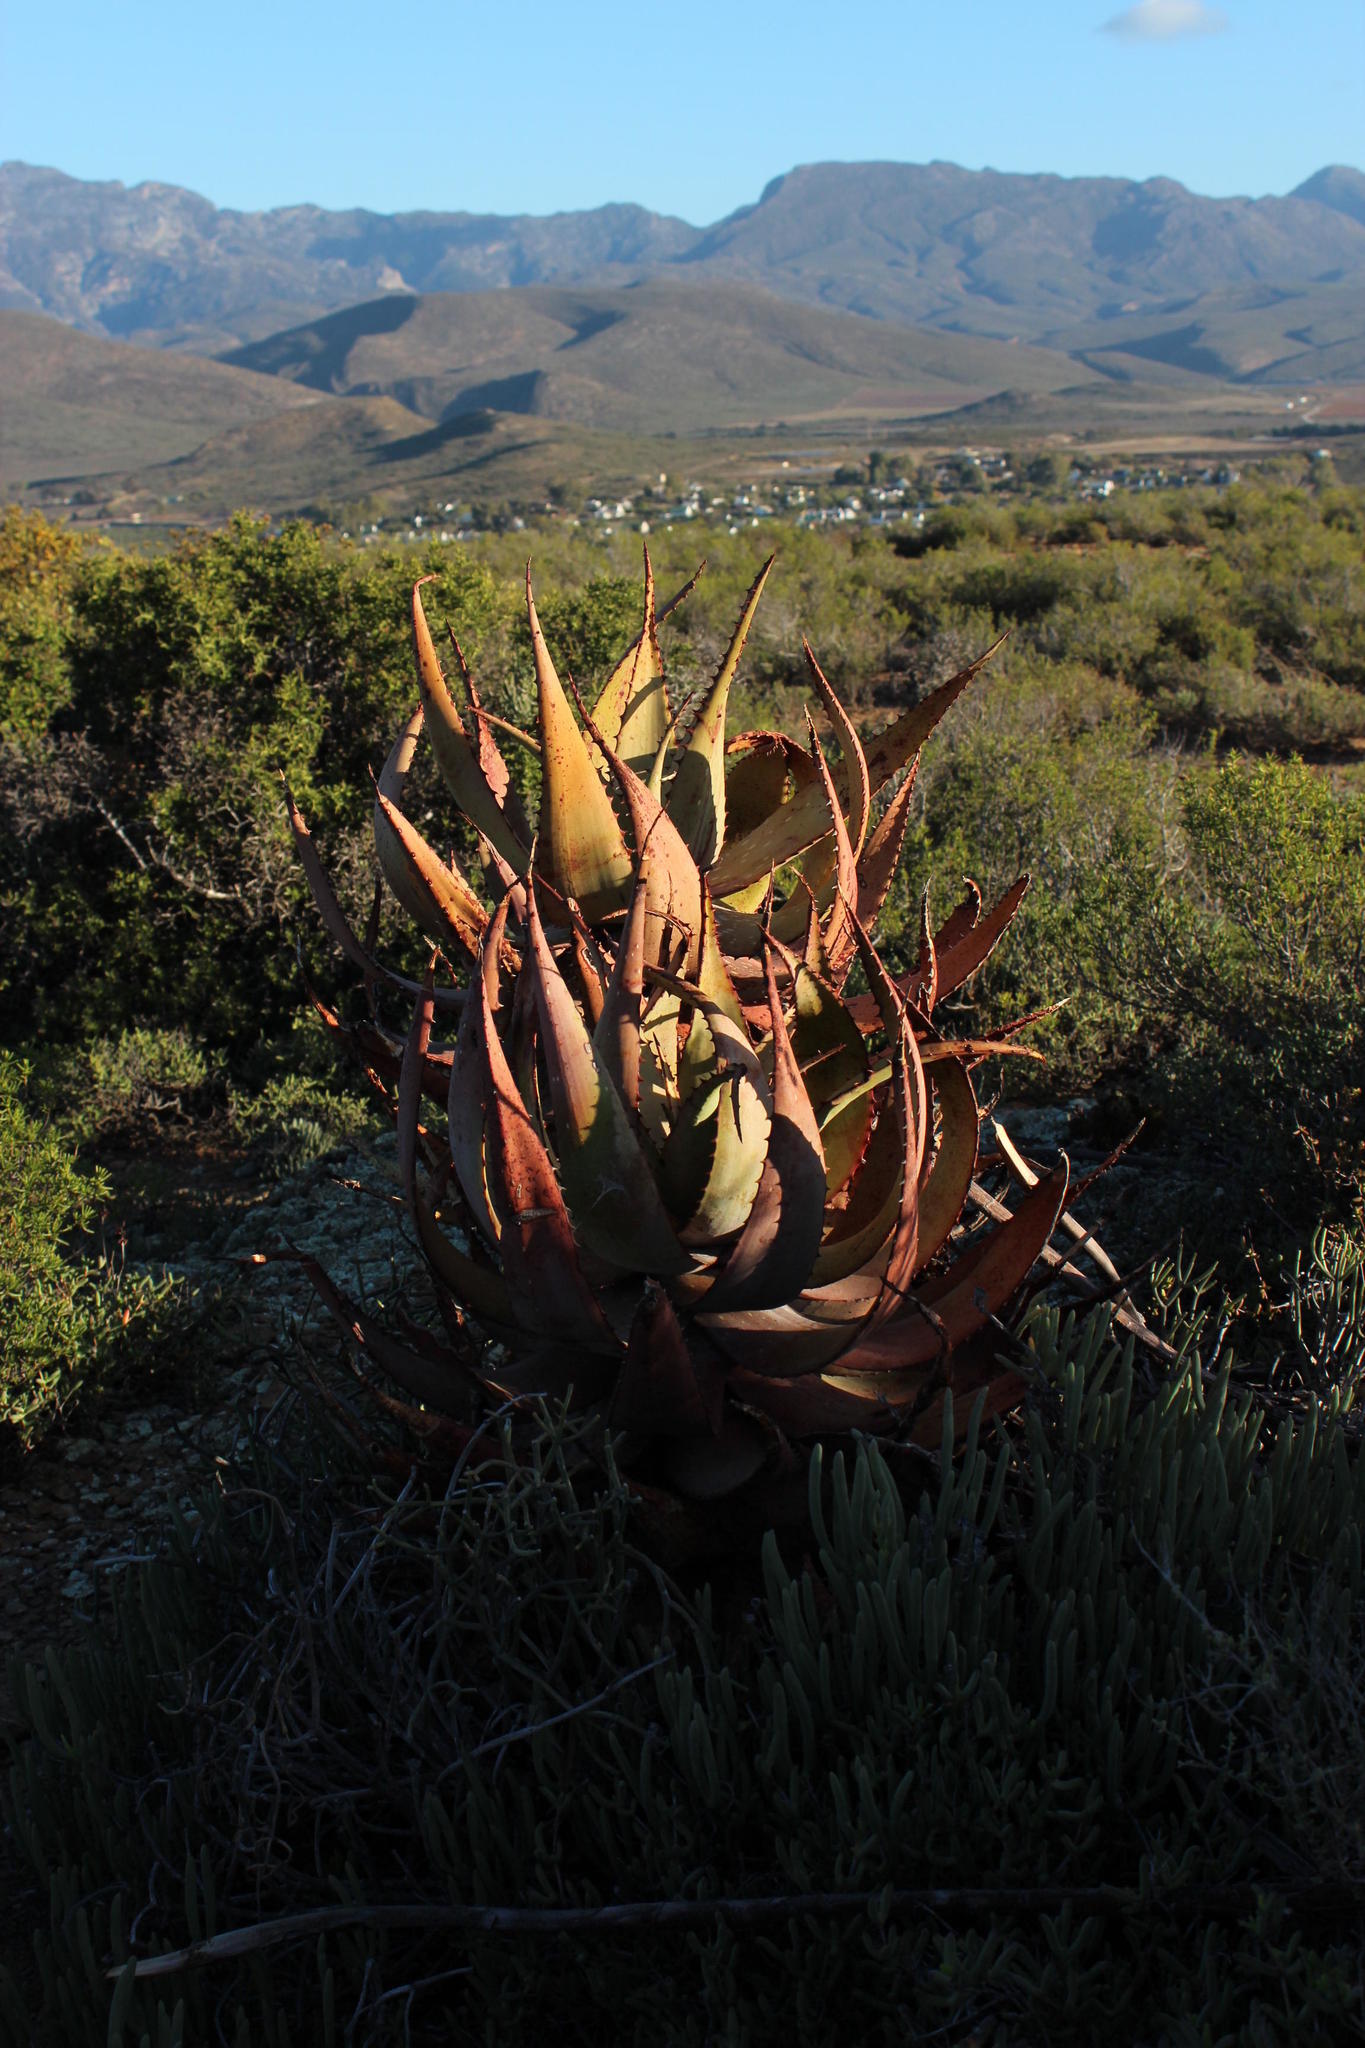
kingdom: Plantae
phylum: Tracheophyta
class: Liliopsida
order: Asparagales
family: Asphodelaceae
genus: Aloe
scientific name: Aloe microstigma
